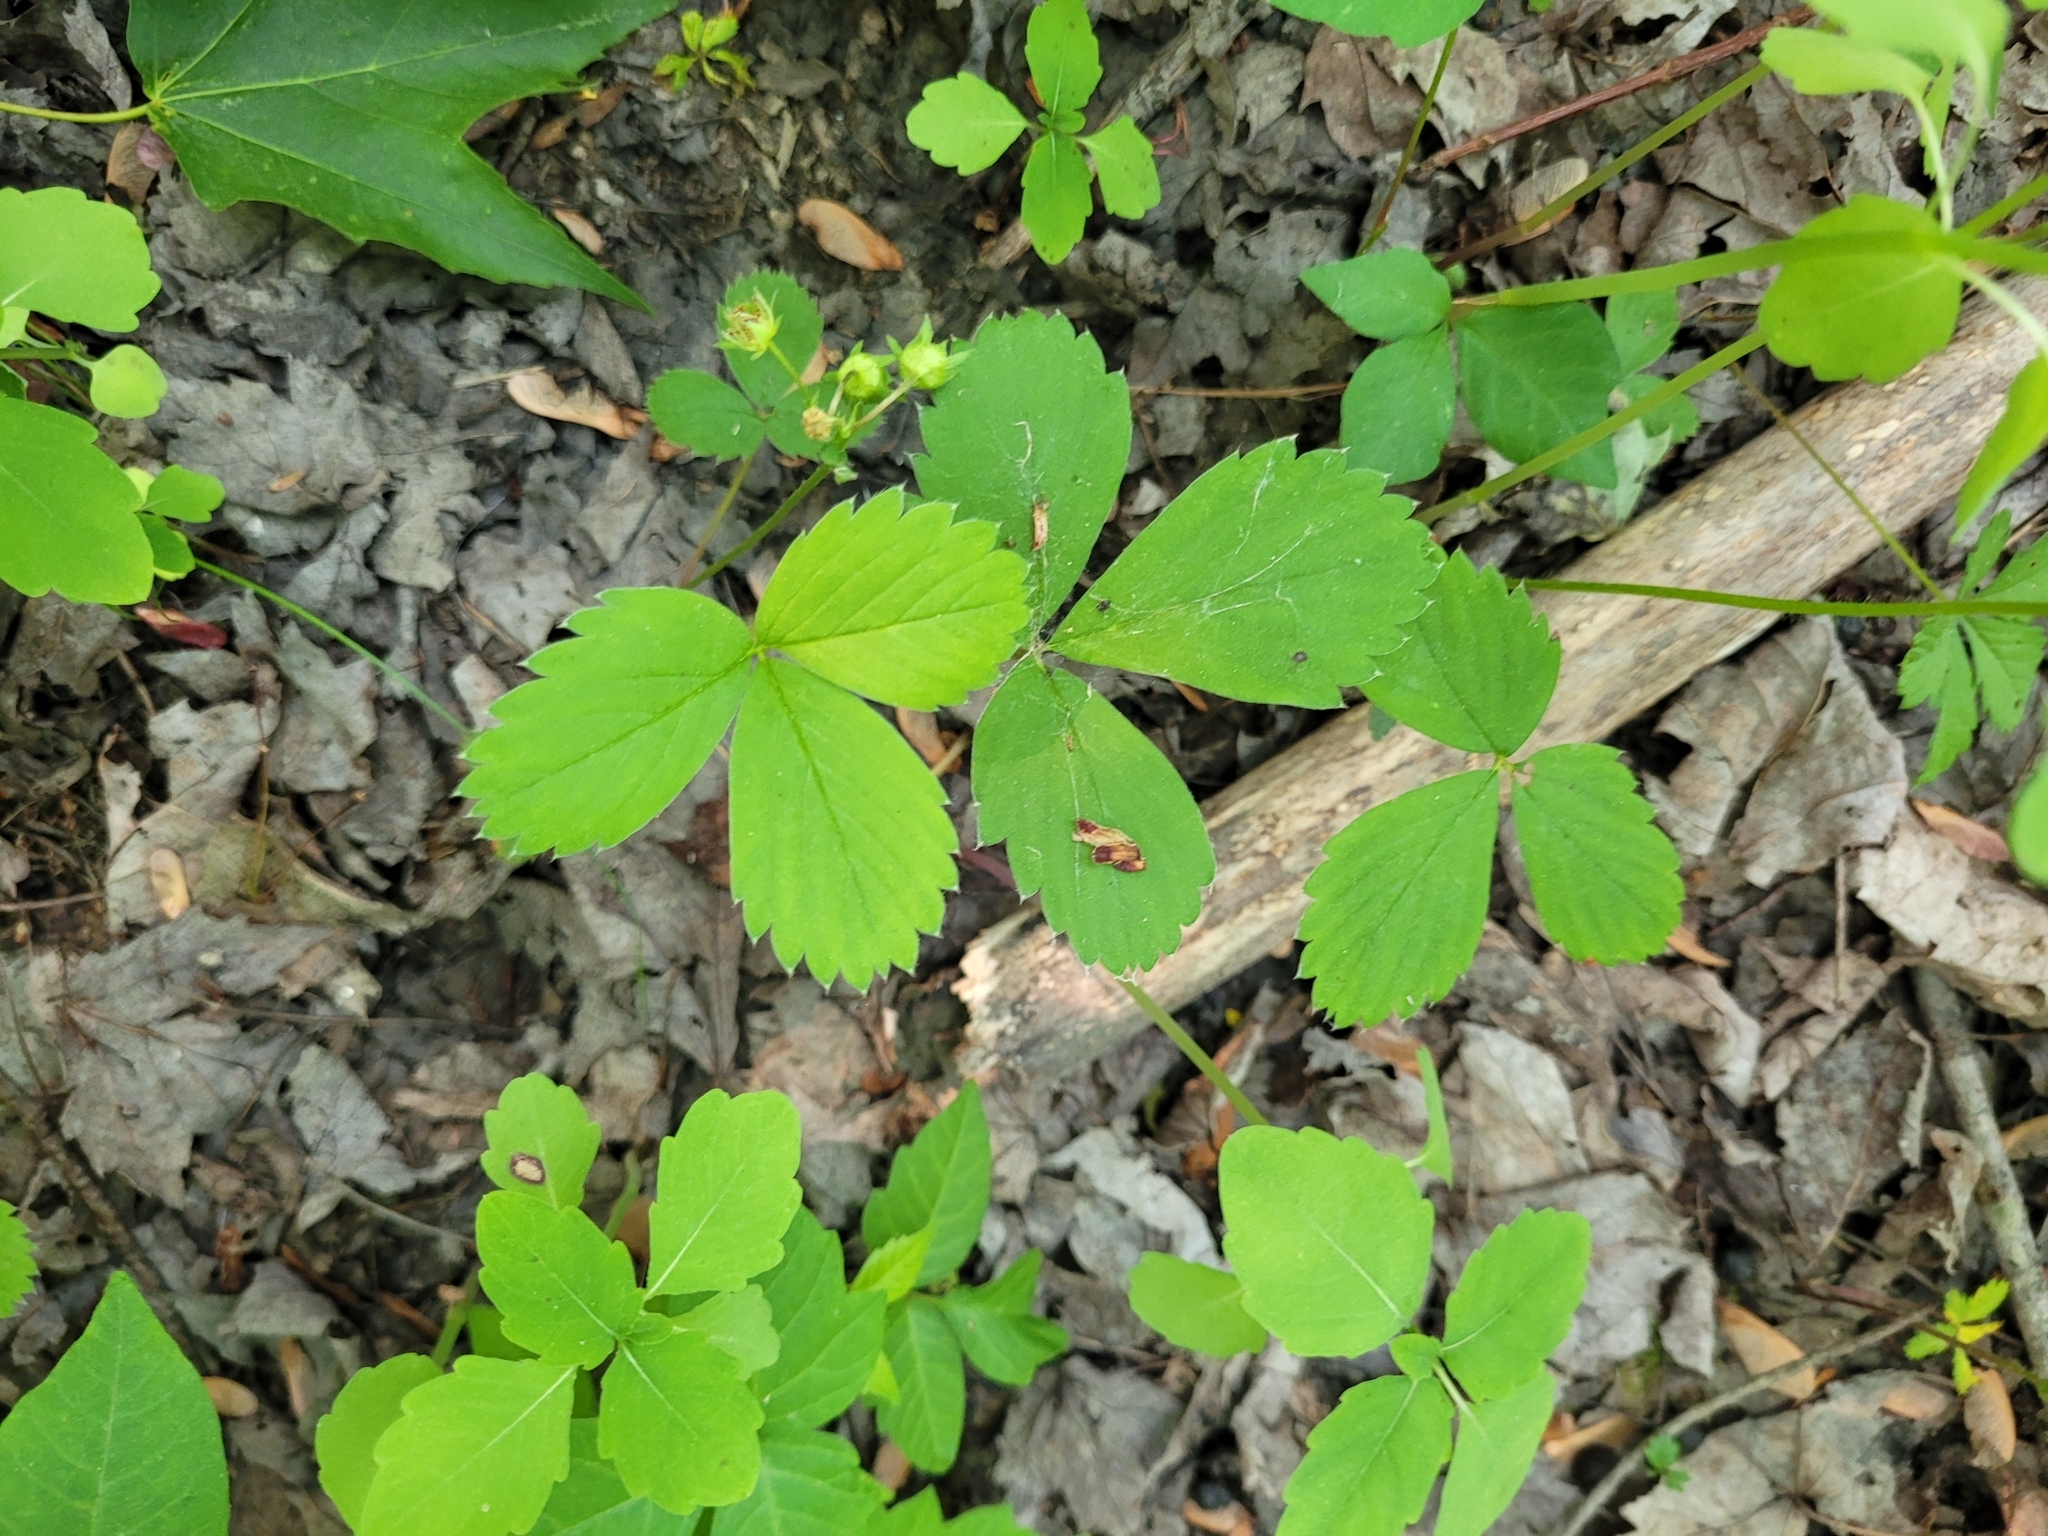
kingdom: Plantae
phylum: Tracheophyta
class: Magnoliopsida
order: Rosales
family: Rosaceae
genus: Fragaria
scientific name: Fragaria virginiana
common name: Thickleaved wild strawberry
